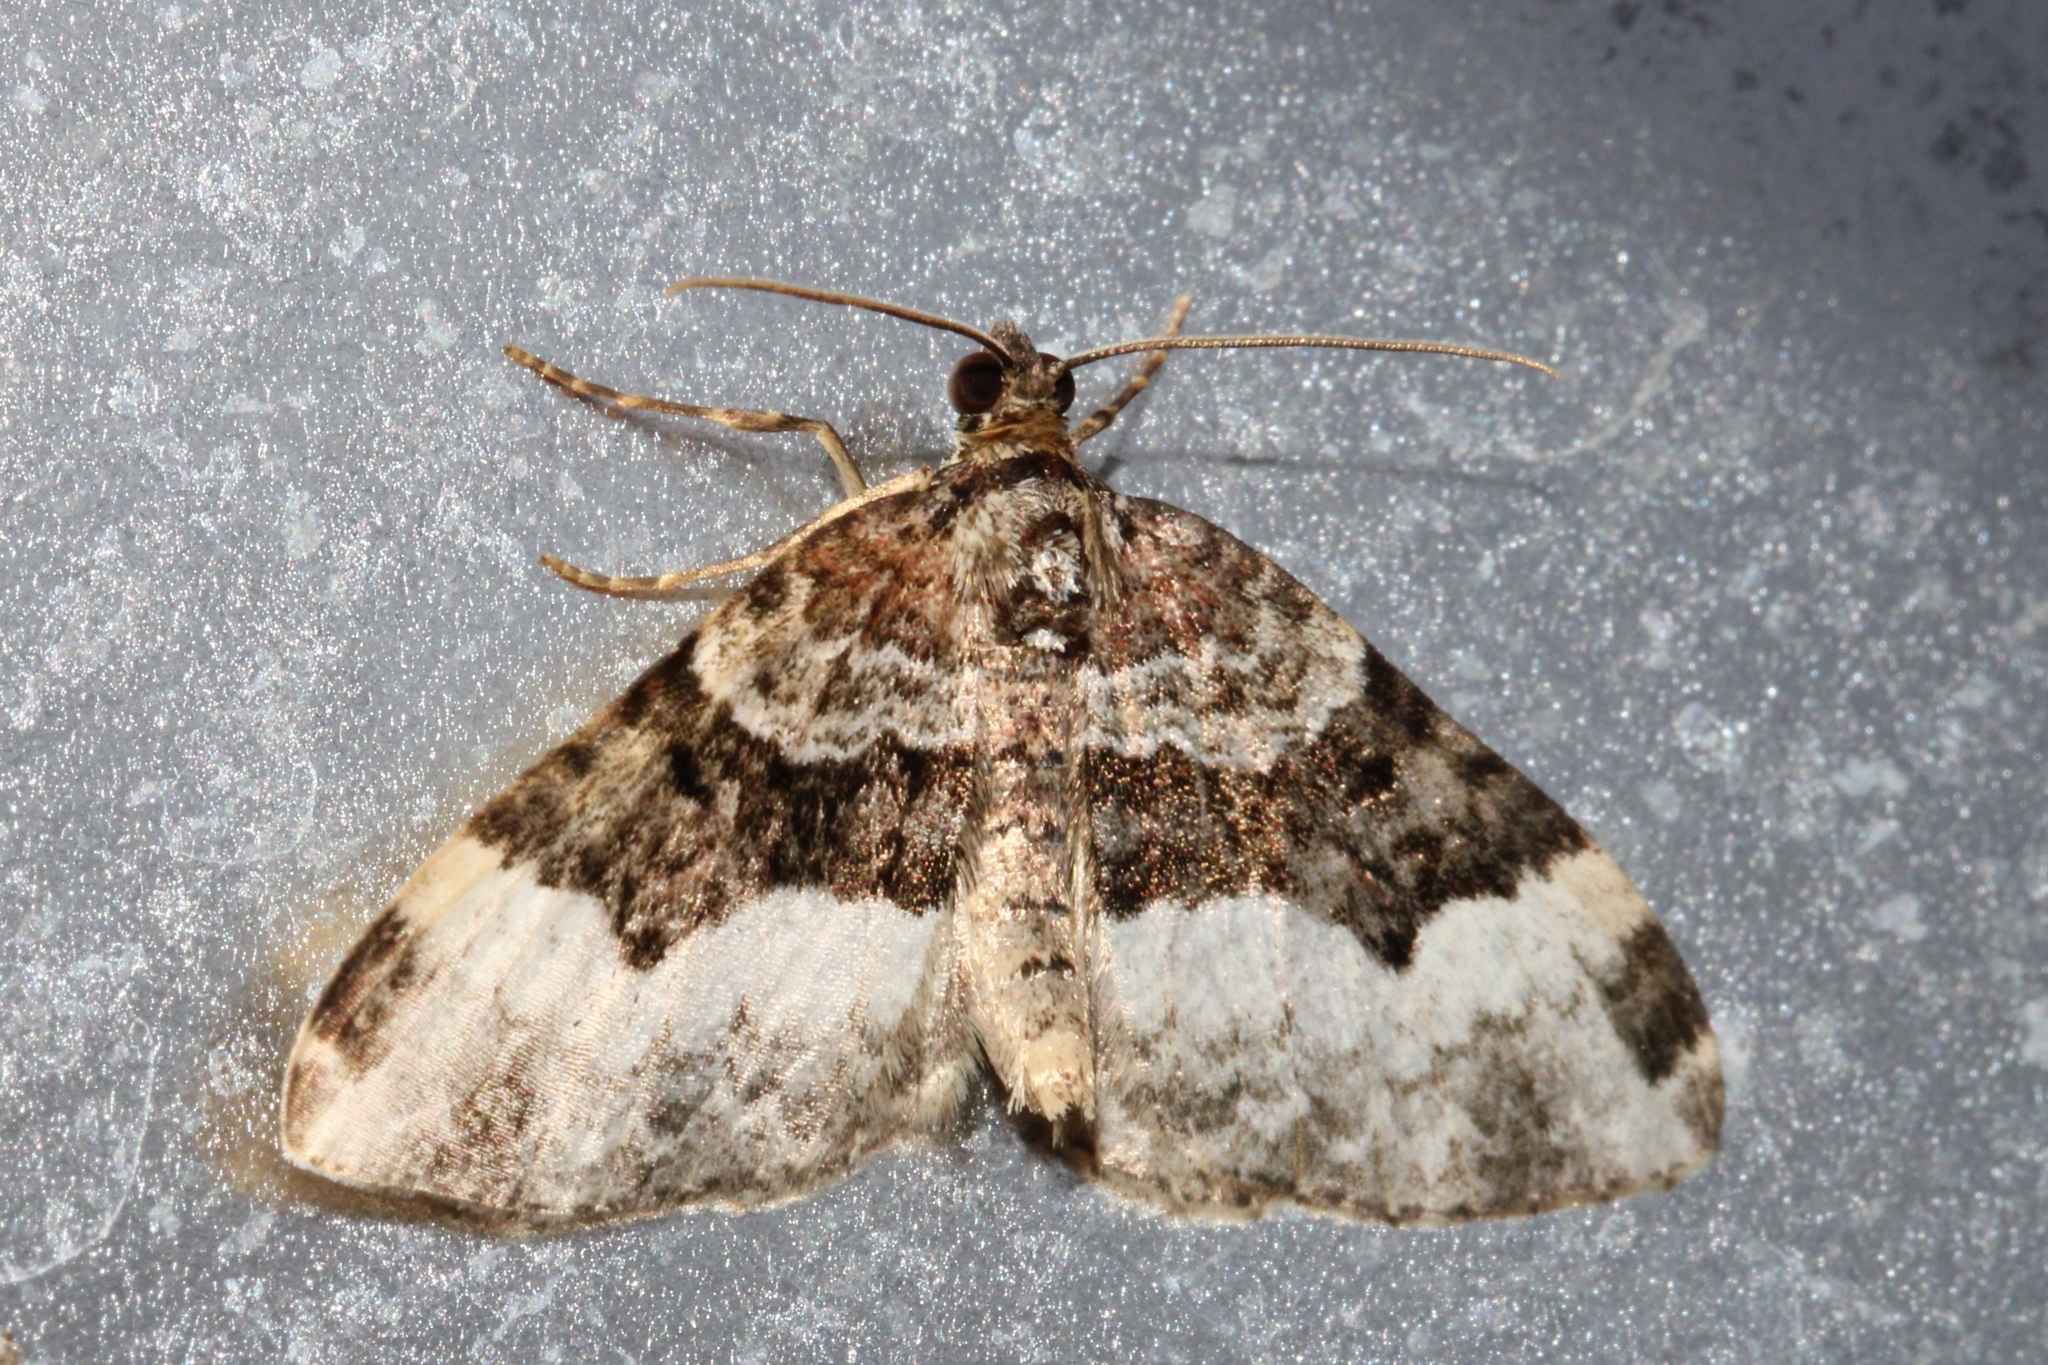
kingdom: Animalia
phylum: Arthropoda
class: Insecta
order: Lepidoptera
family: Geometridae
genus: Euphyia
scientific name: Euphyia intermediata
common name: Sharp-angled carpet
